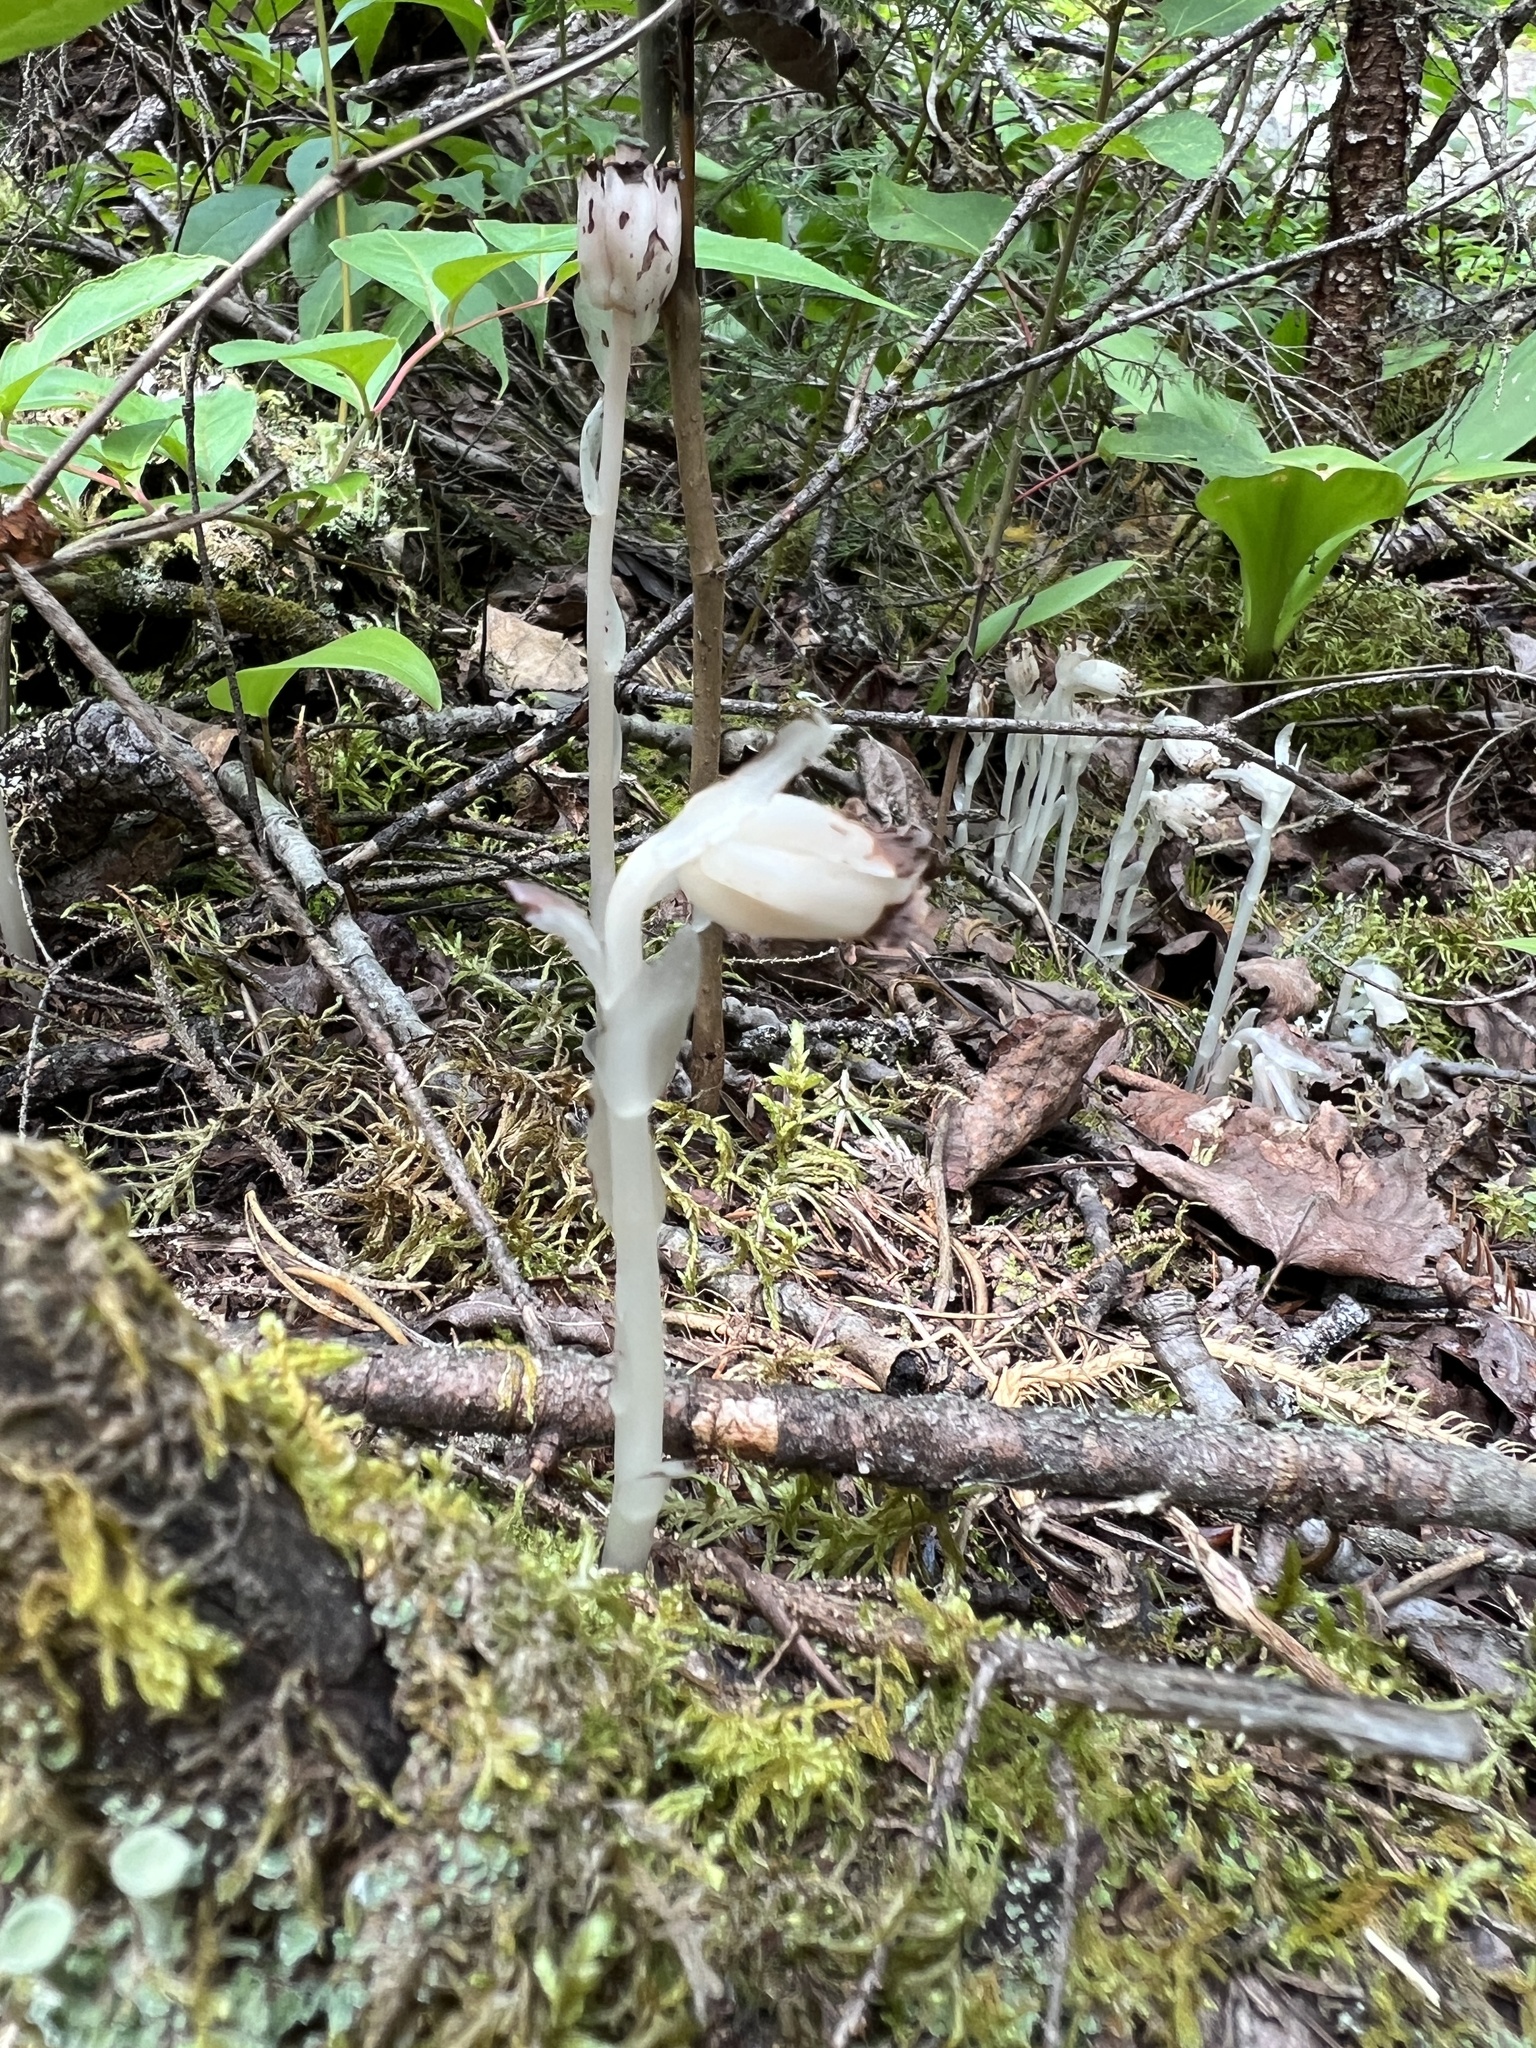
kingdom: Plantae
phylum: Tracheophyta
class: Magnoliopsida
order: Ericales
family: Ericaceae
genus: Monotropa
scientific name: Monotropa uniflora
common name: Convulsion root
